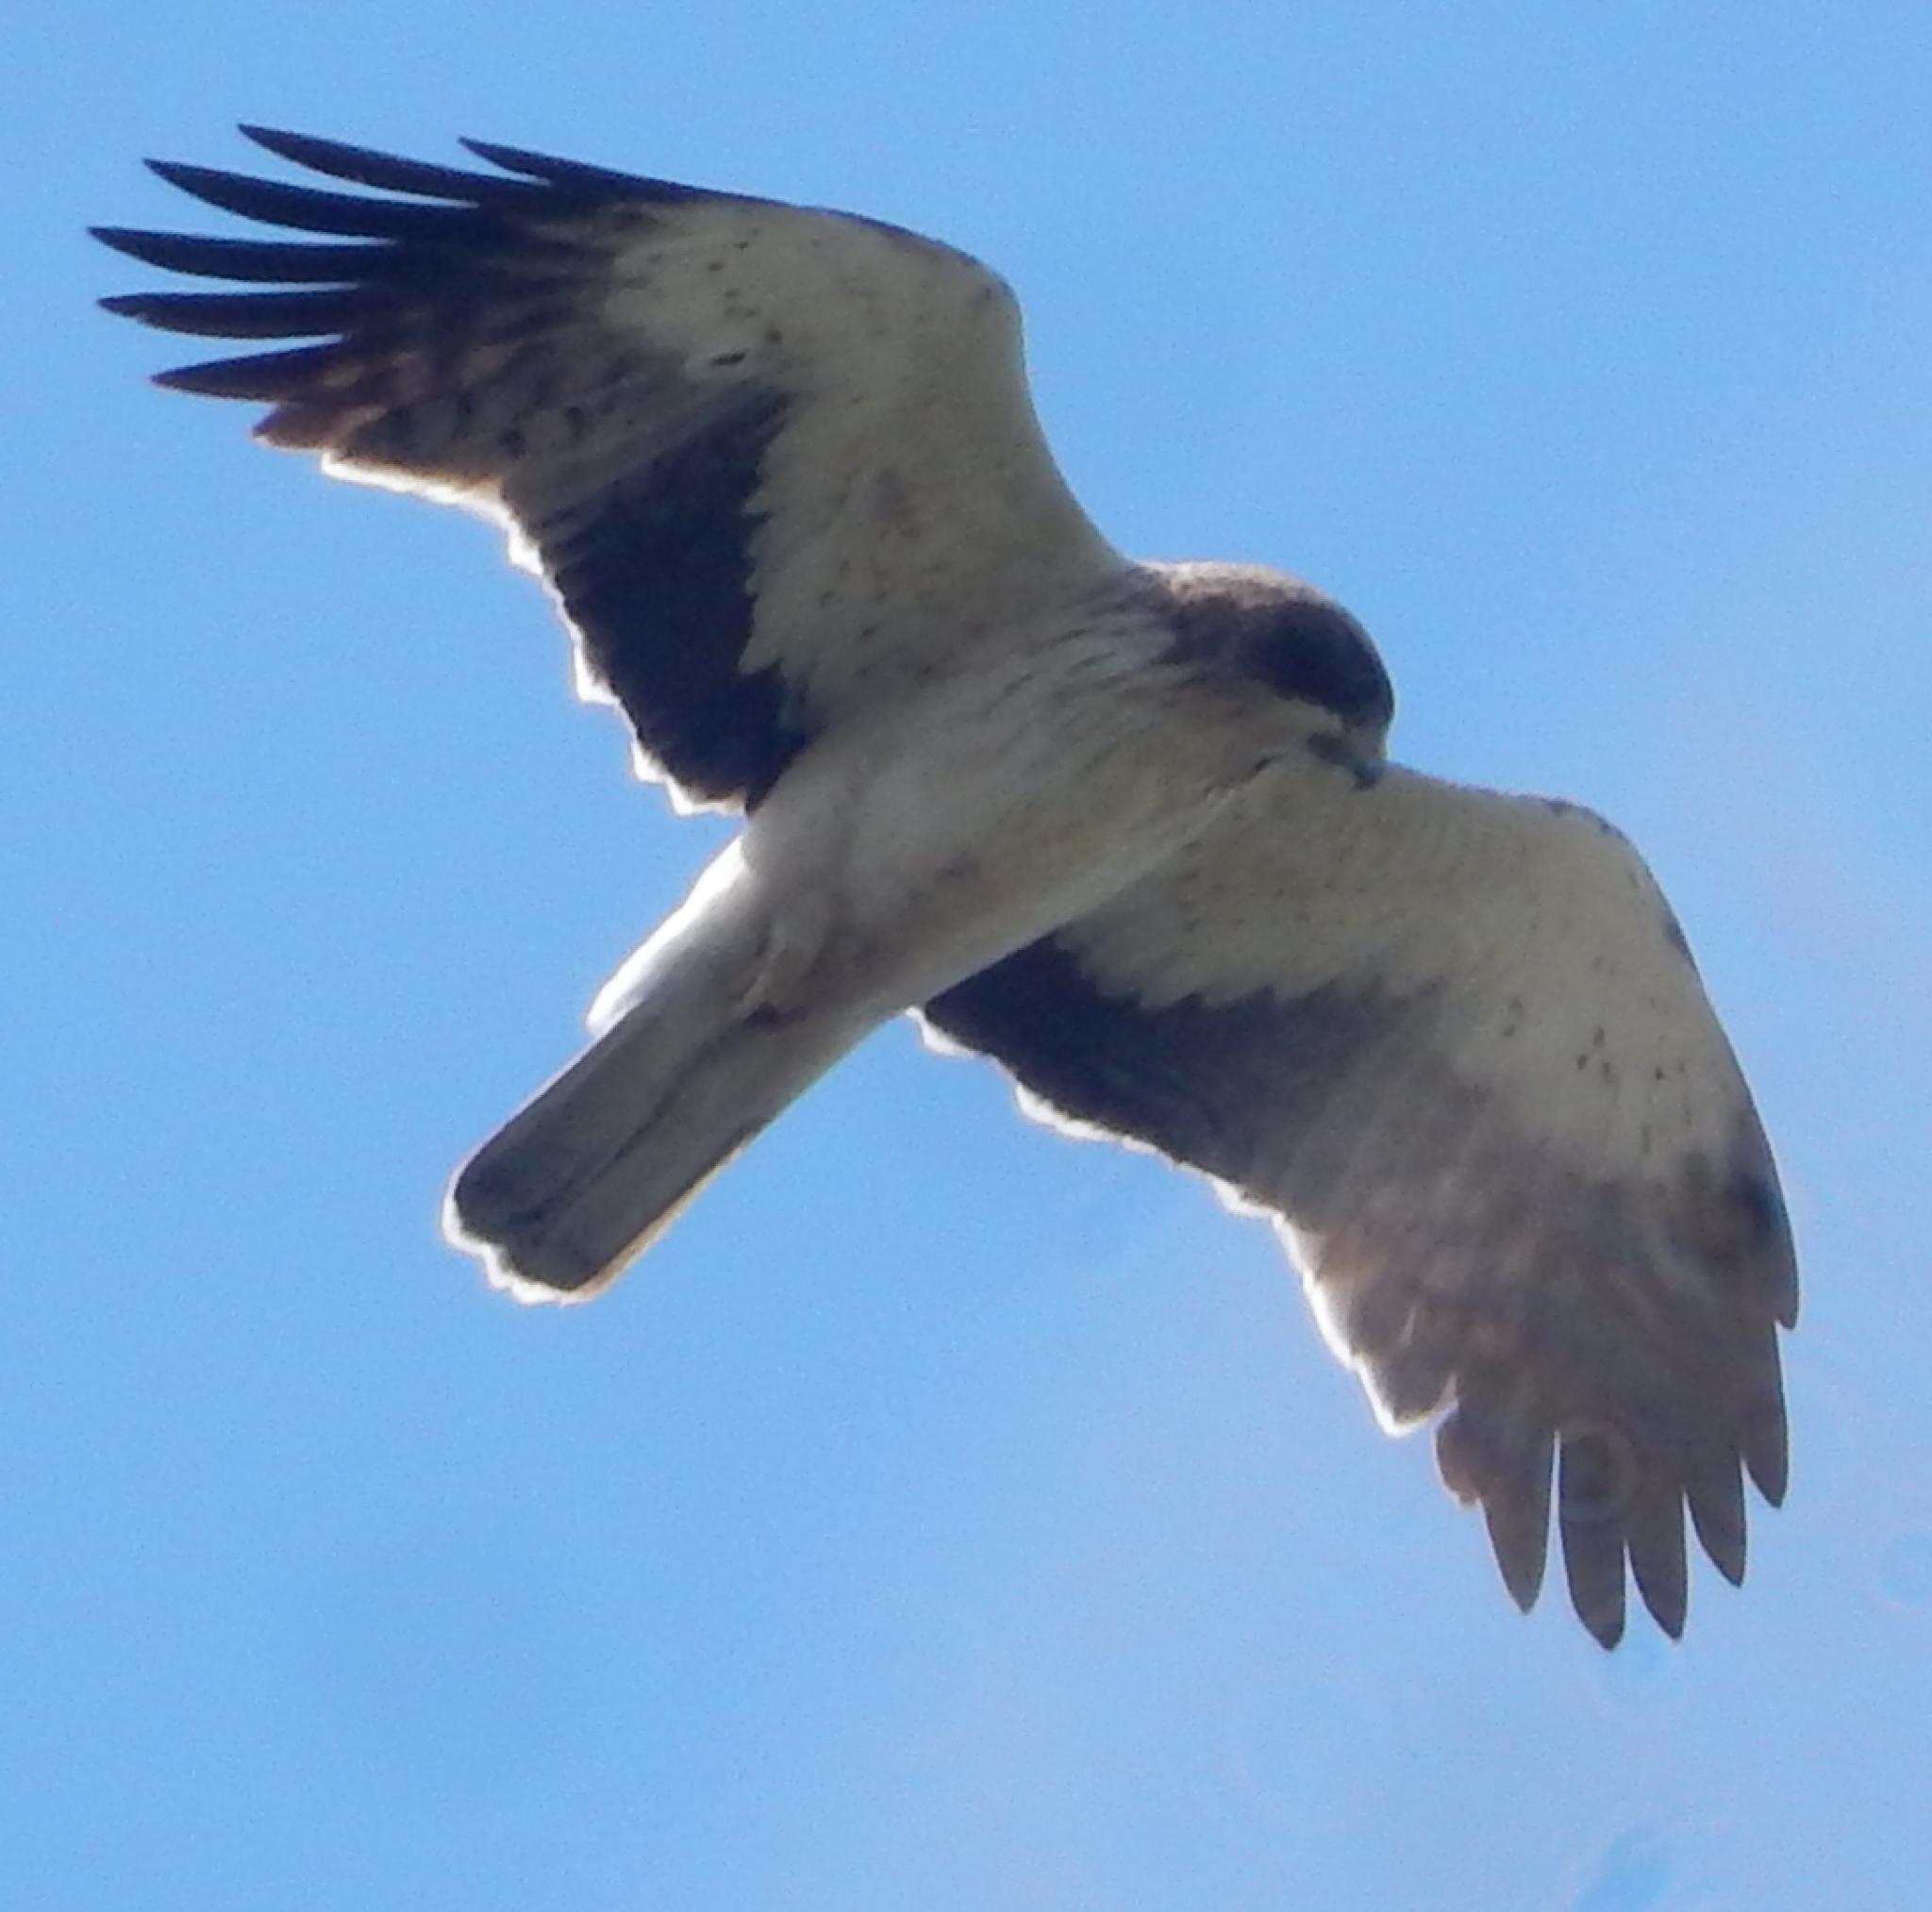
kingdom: Animalia
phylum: Chordata
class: Aves
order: Accipitriformes
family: Accipitridae
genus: Hieraaetus
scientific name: Hieraaetus pennatus
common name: Booted eagle
